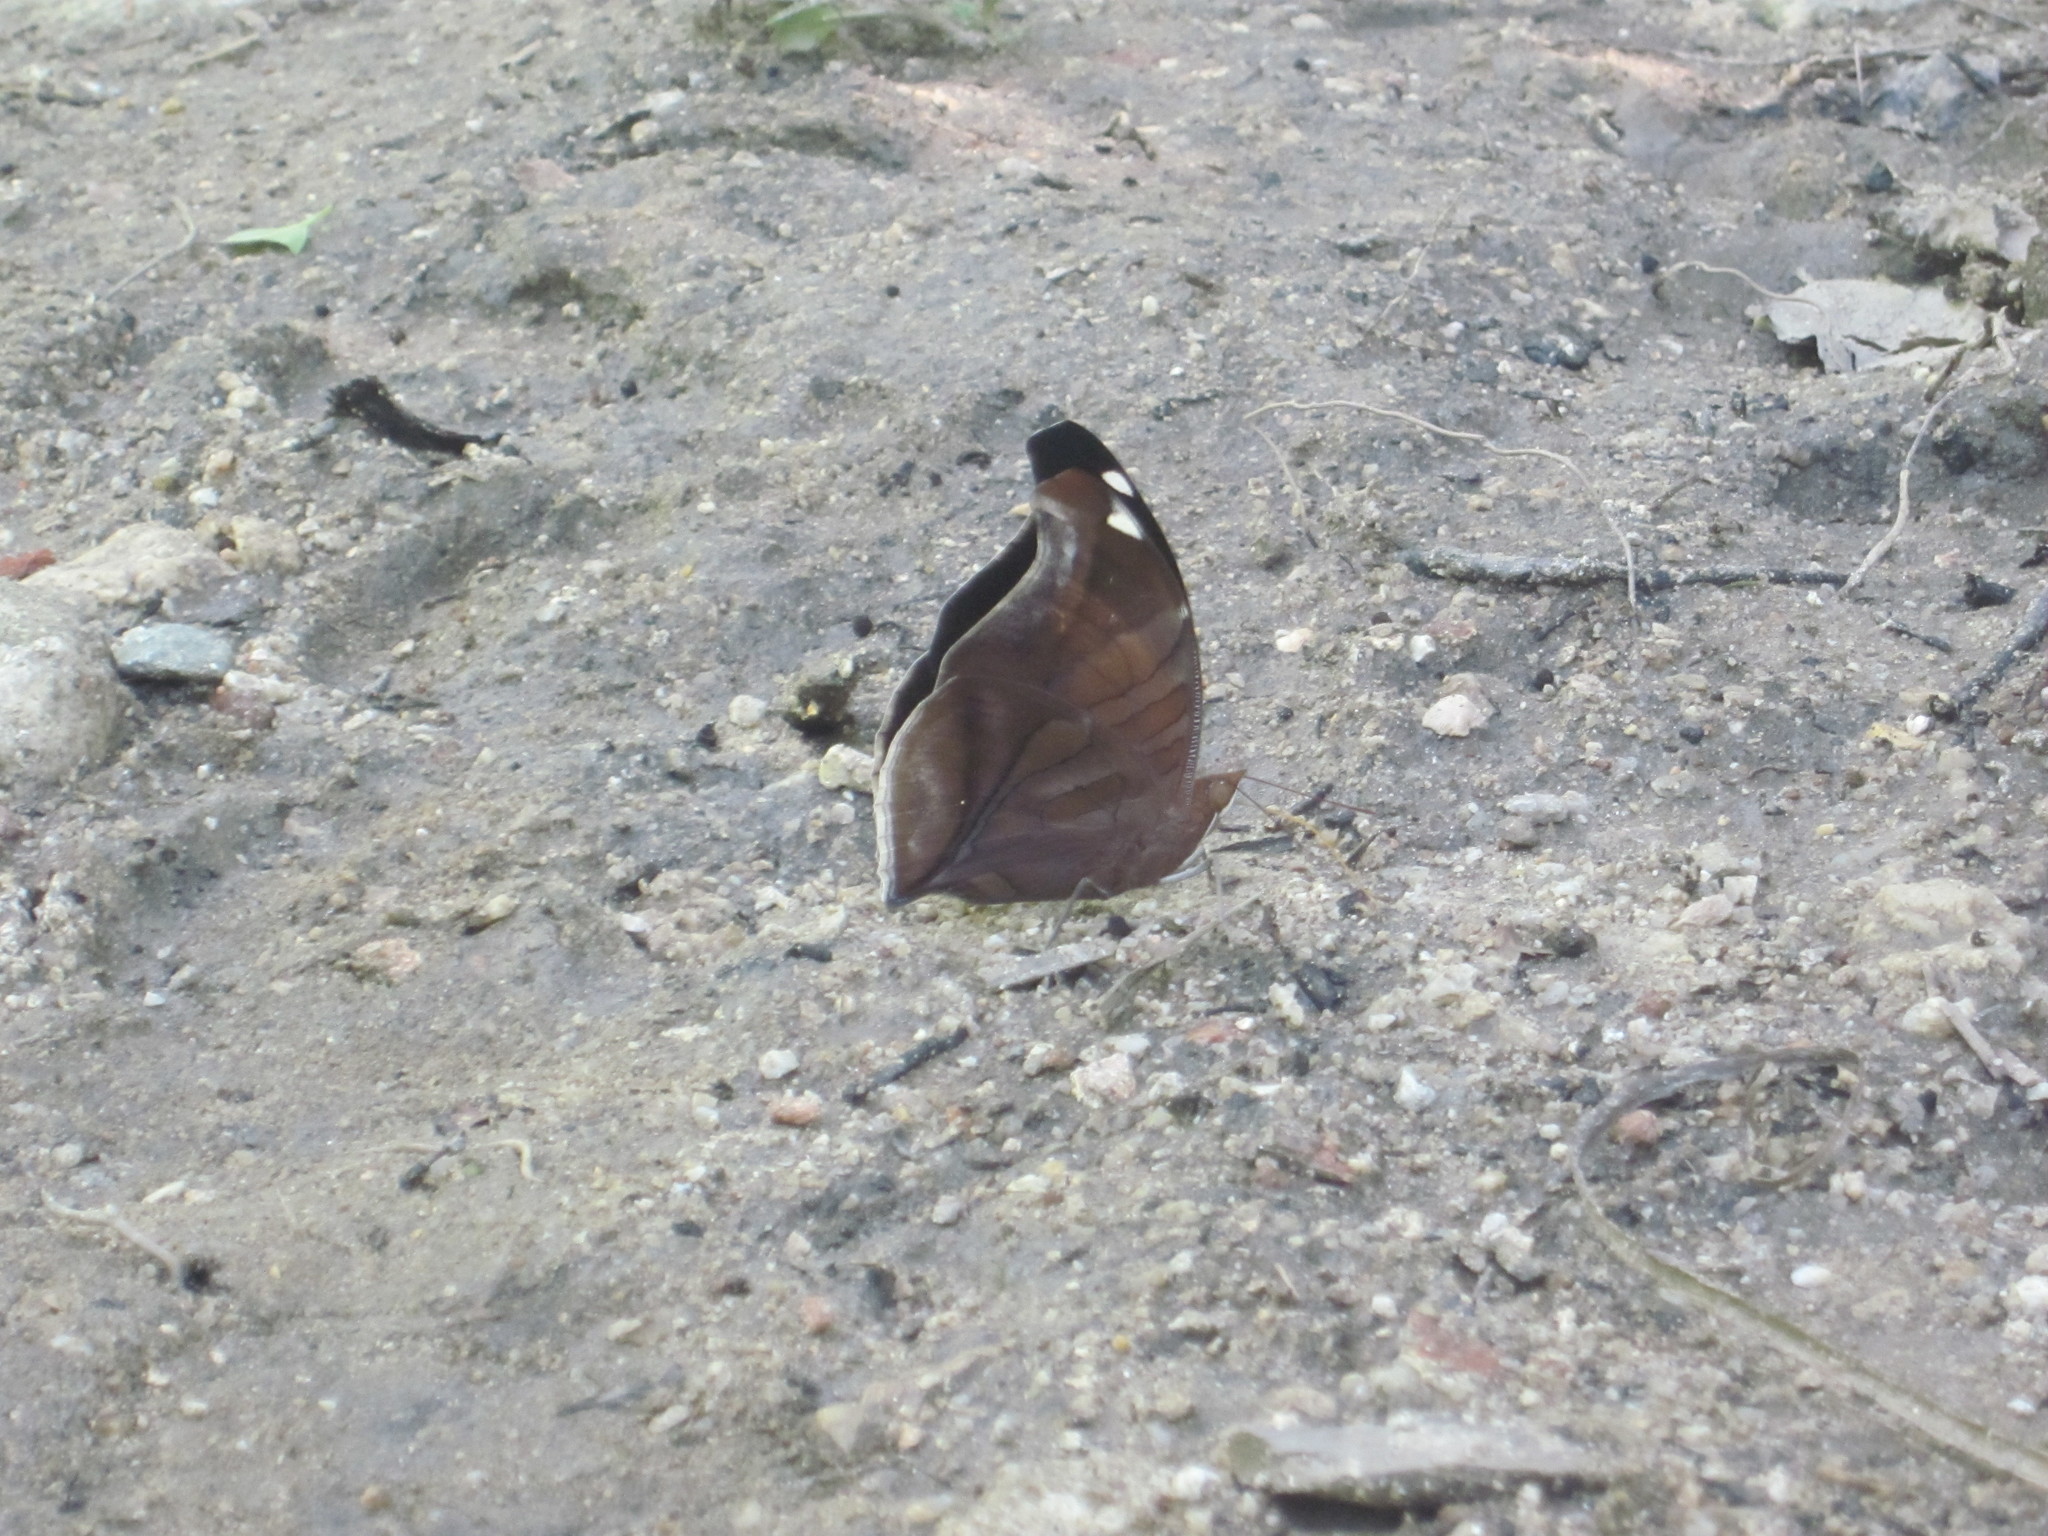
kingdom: Animalia
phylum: Arthropoda
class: Insecta
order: Lepidoptera
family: Nymphalidae
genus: Historis
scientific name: Historis odius
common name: Orion cecropian
